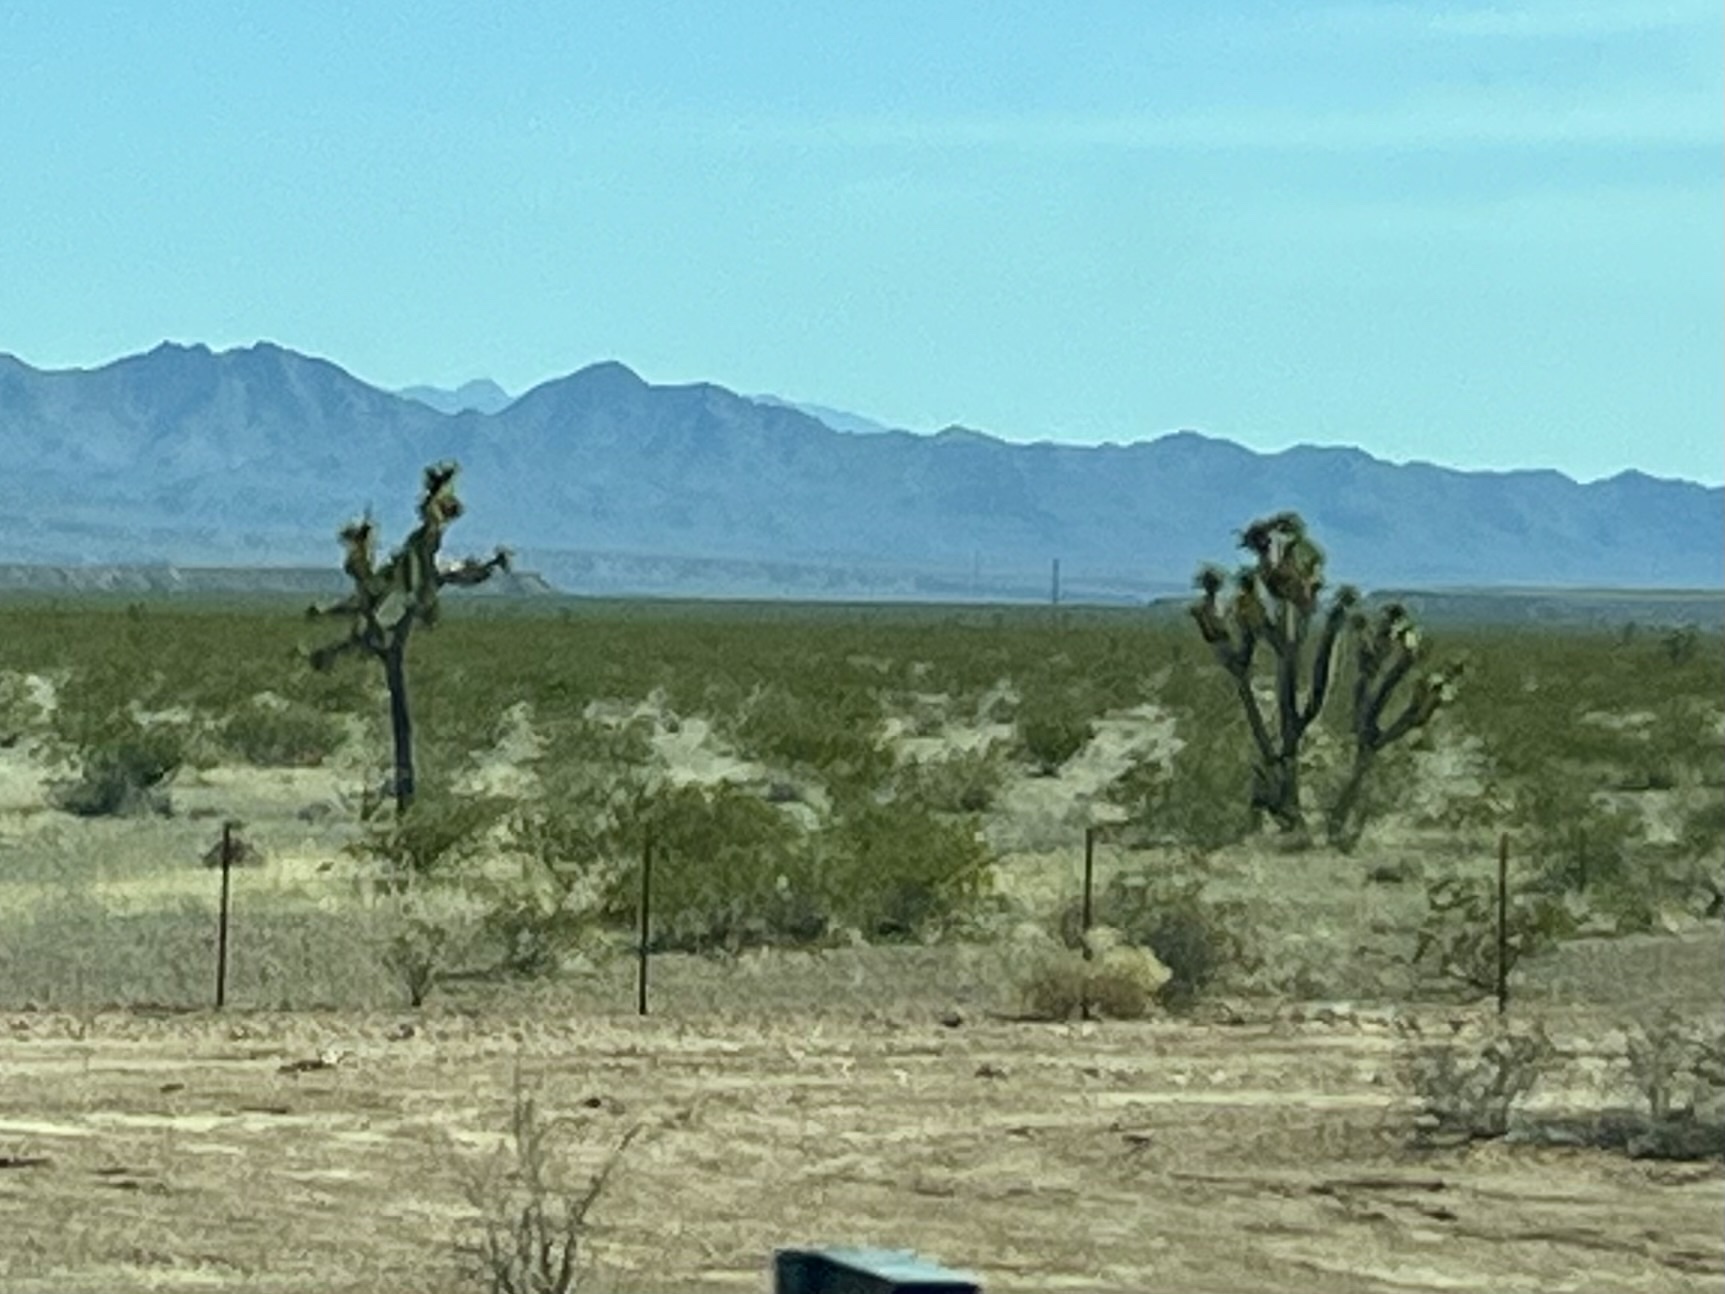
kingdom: Plantae
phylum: Tracheophyta
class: Liliopsida
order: Asparagales
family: Asparagaceae
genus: Yucca
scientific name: Yucca brevifolia
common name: Joshua tree
